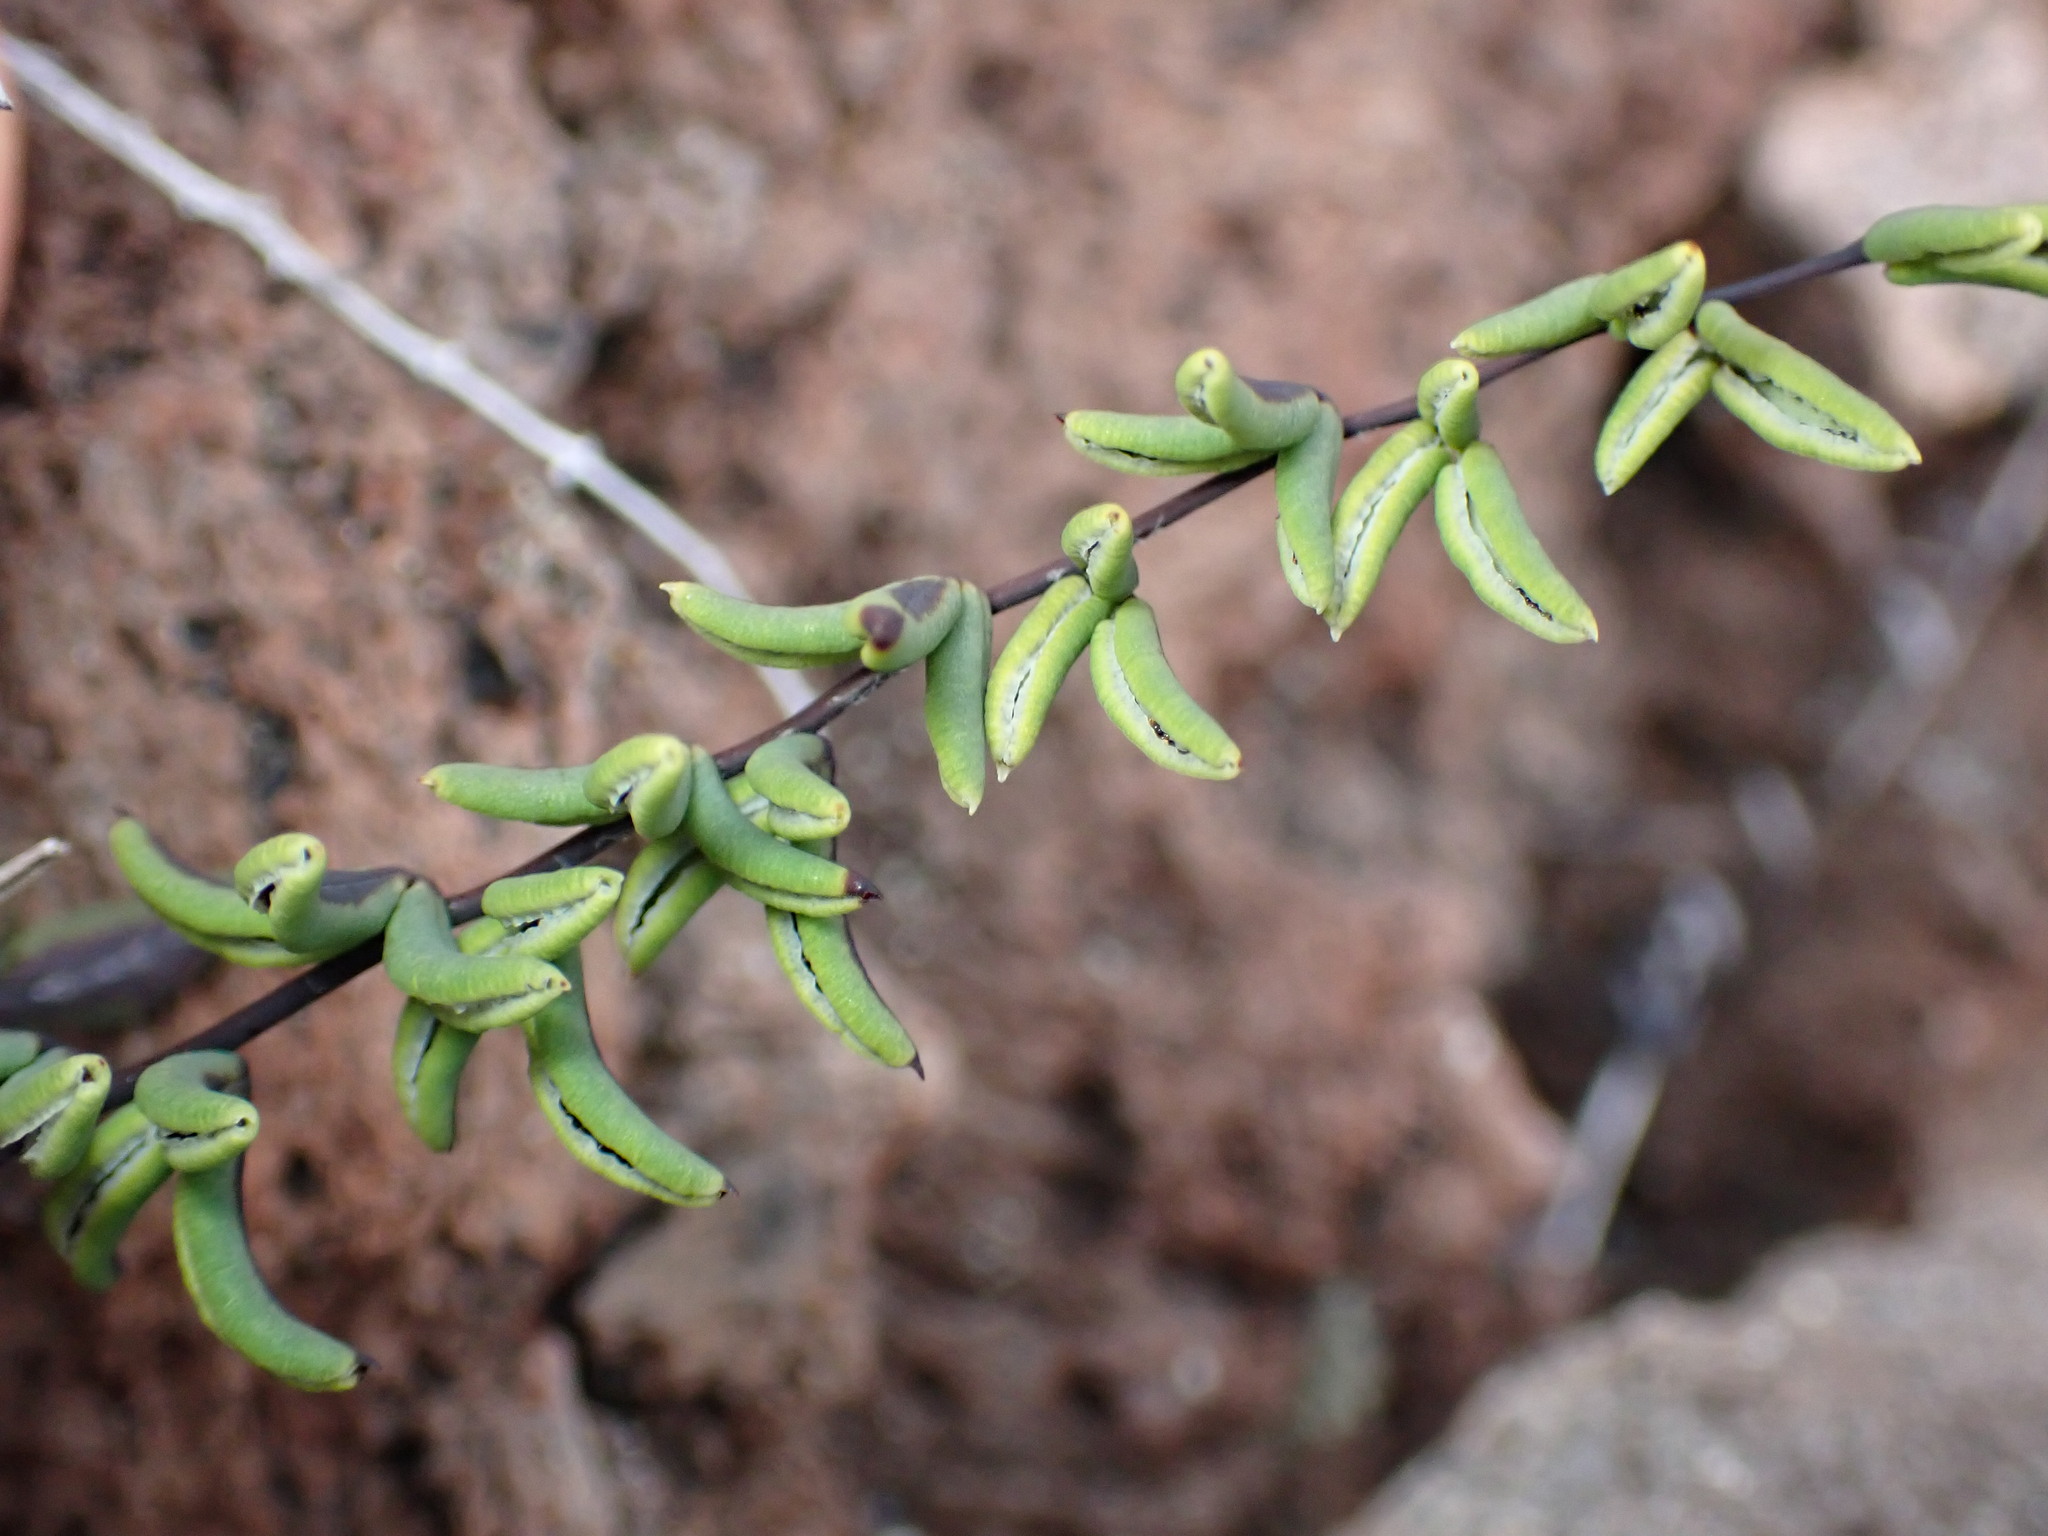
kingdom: Plantae
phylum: Tracheophyta
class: Polypodiopsida
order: Polypodiales
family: Pteridaceae
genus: Pellaea
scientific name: Pellaea ternifolia
